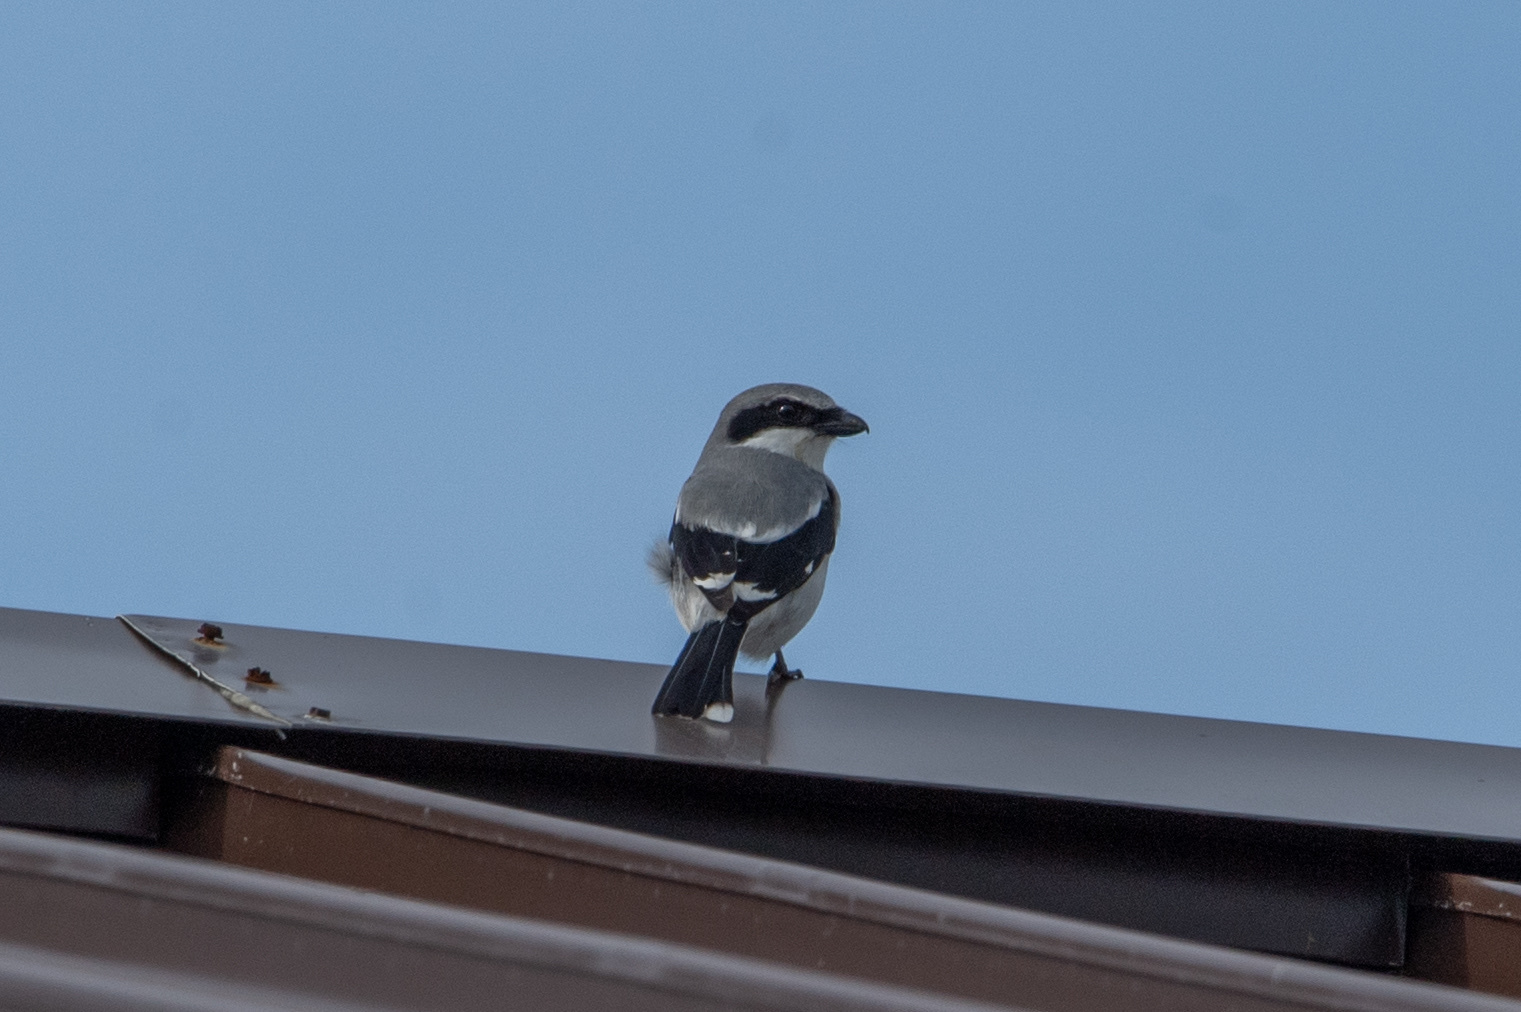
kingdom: Animalia
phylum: Chordata
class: Aves
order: Passeriformes
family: Laniidae
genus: Lanius
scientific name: Lanius ludovicianus
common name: Loggerhead shrike
